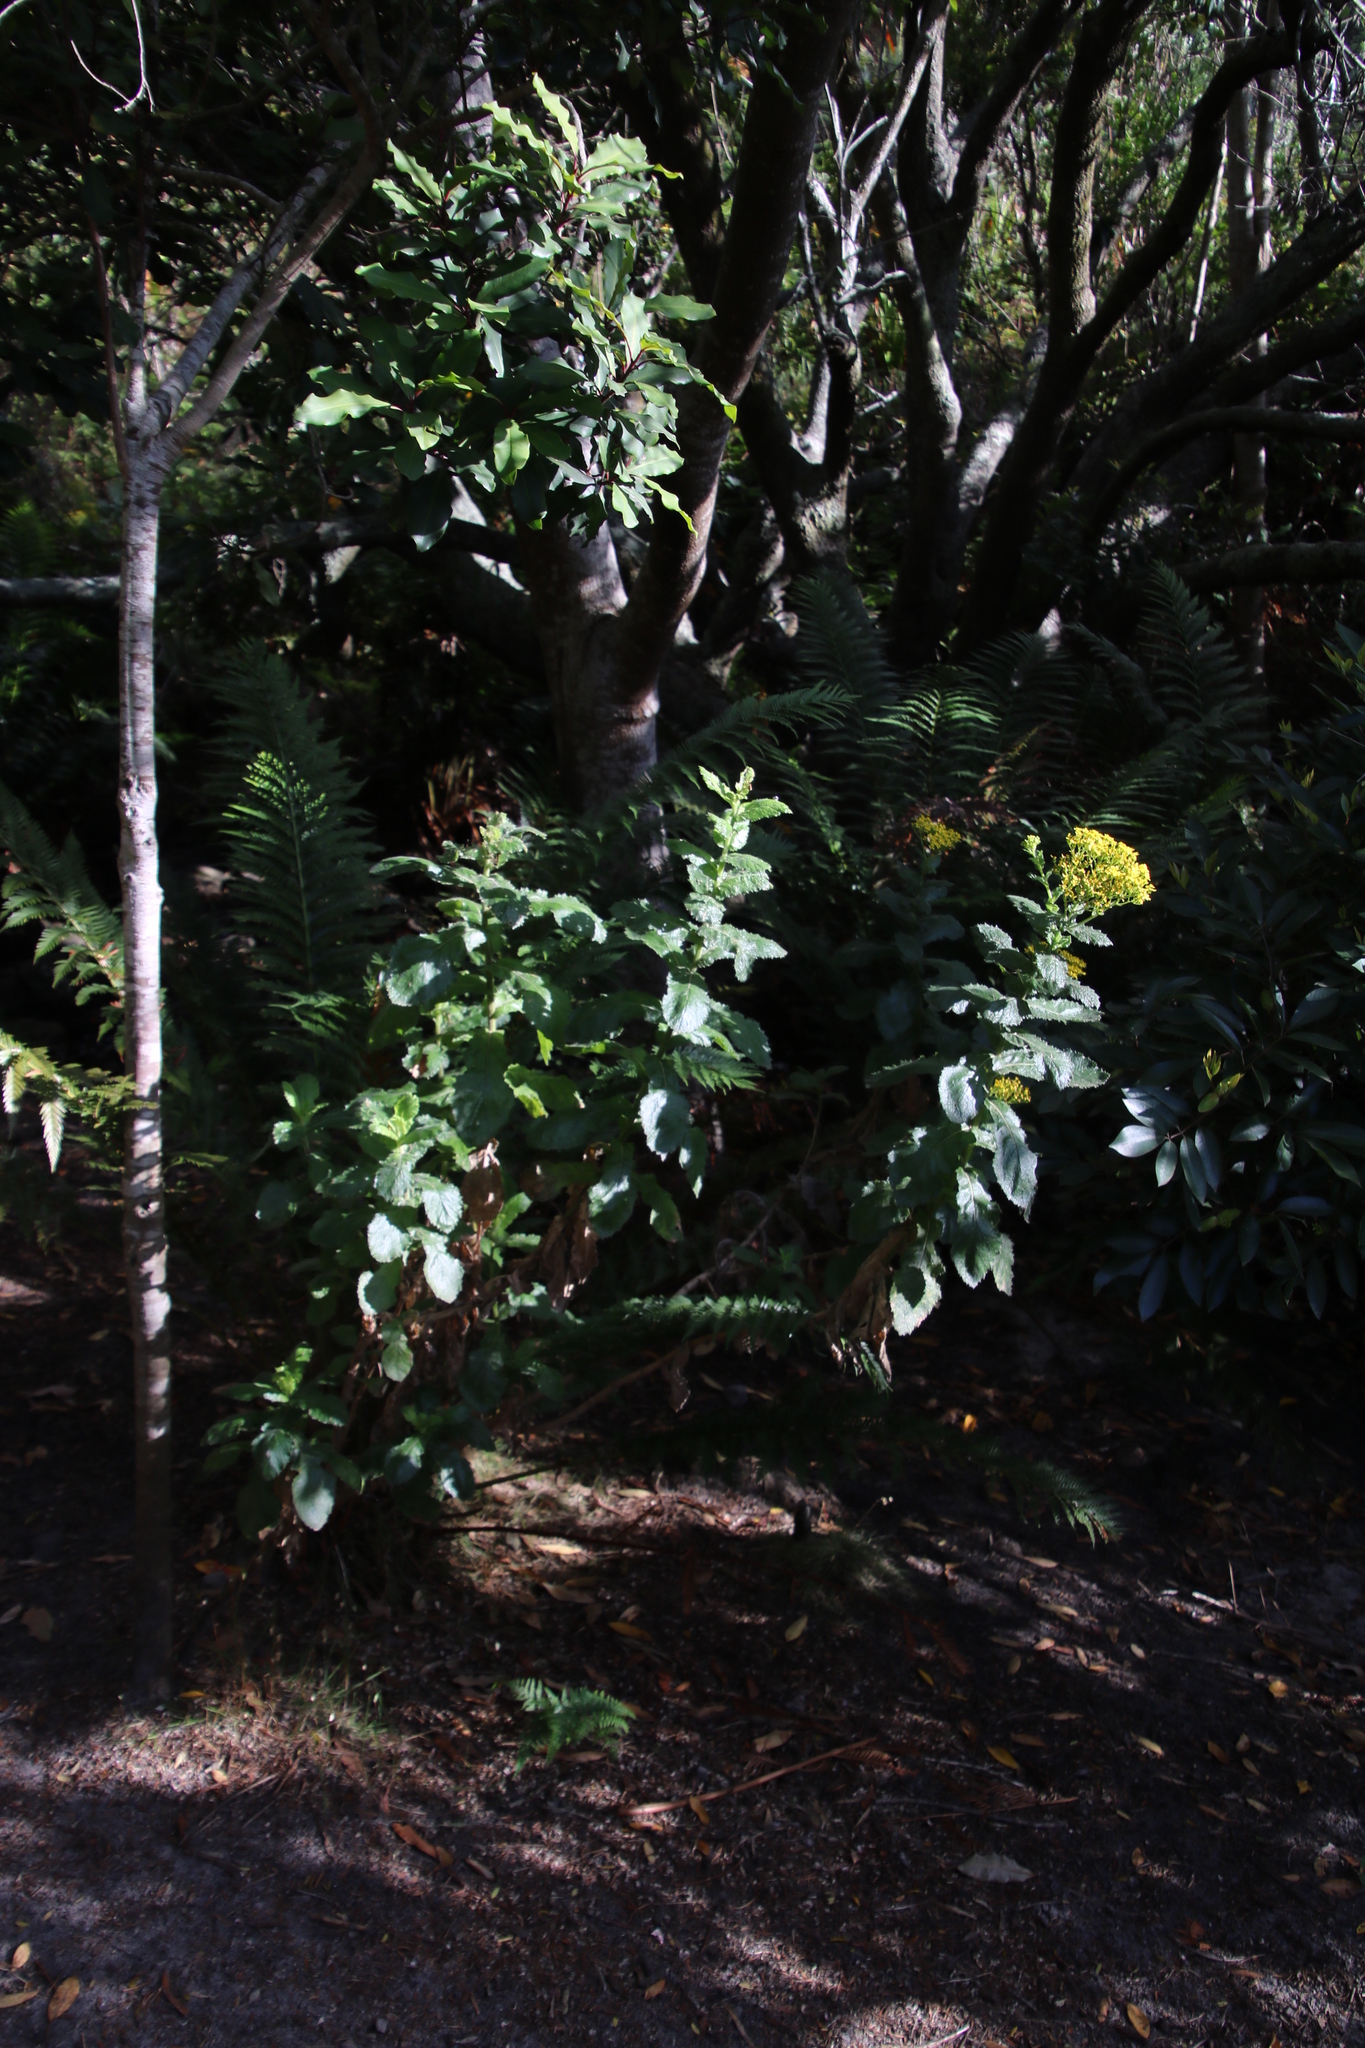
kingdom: Plantae
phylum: Tracheophyta
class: Magnoliopsida
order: Asterales
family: Asteraceae
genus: Senecio
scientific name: Senecio rigidus
